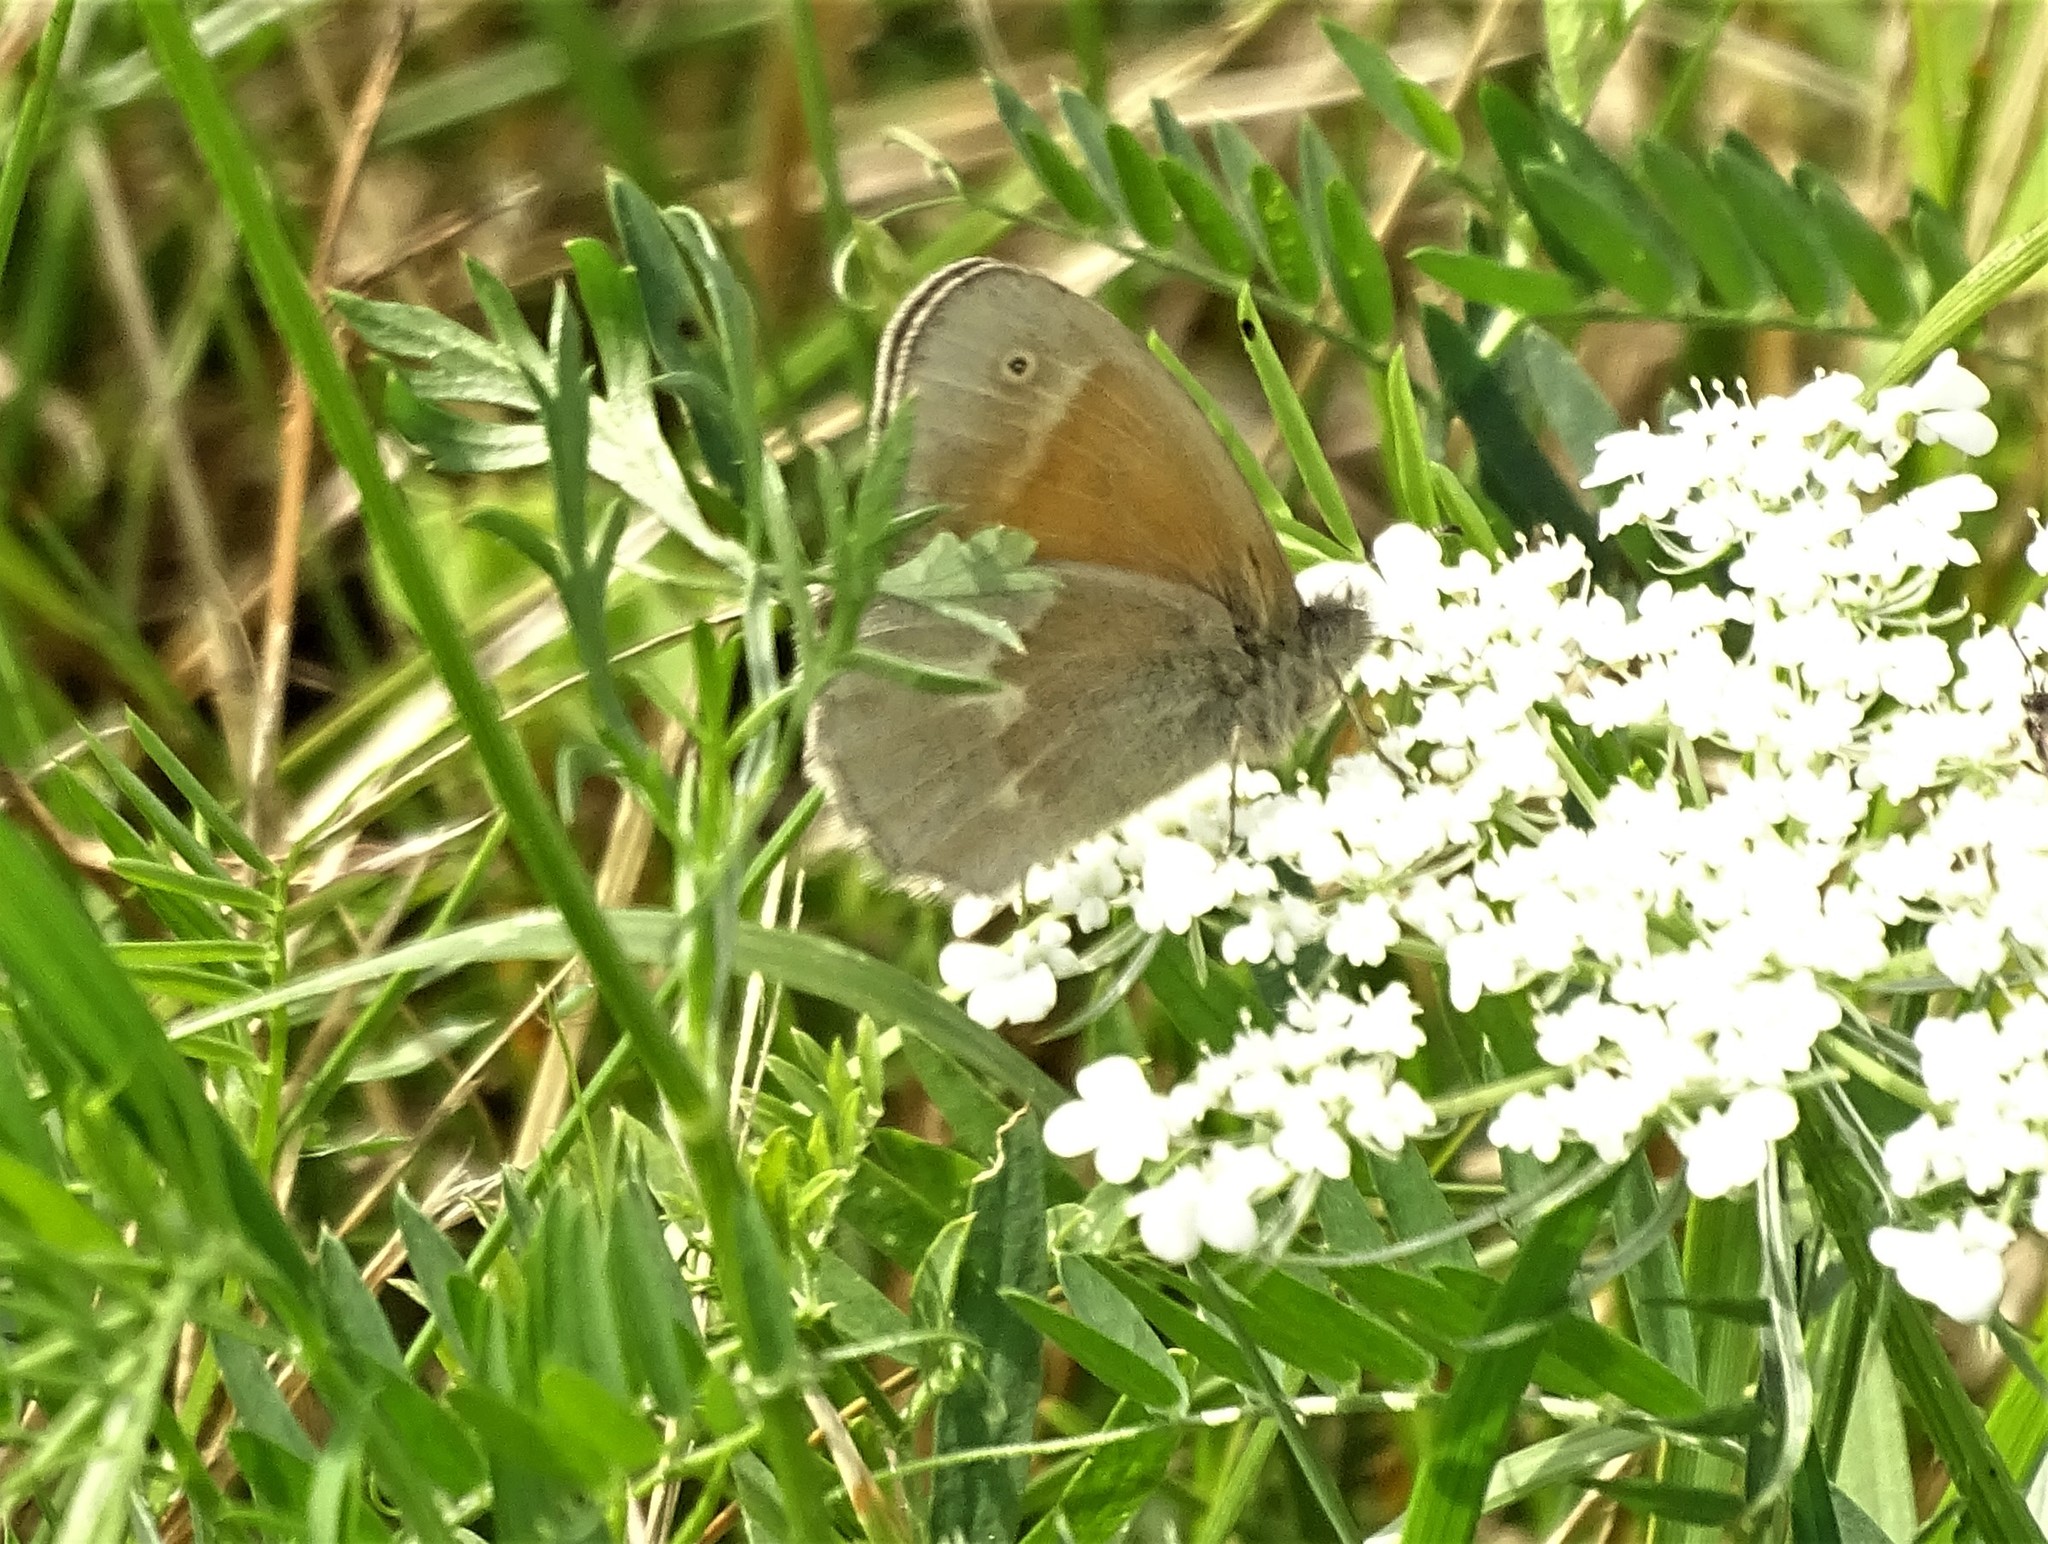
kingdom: Animalia
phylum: Arthropoda
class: Insecta
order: Lepidoptera
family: Nymphalidae
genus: Coenonympha
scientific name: Coenonympha california
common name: Common ringlet
